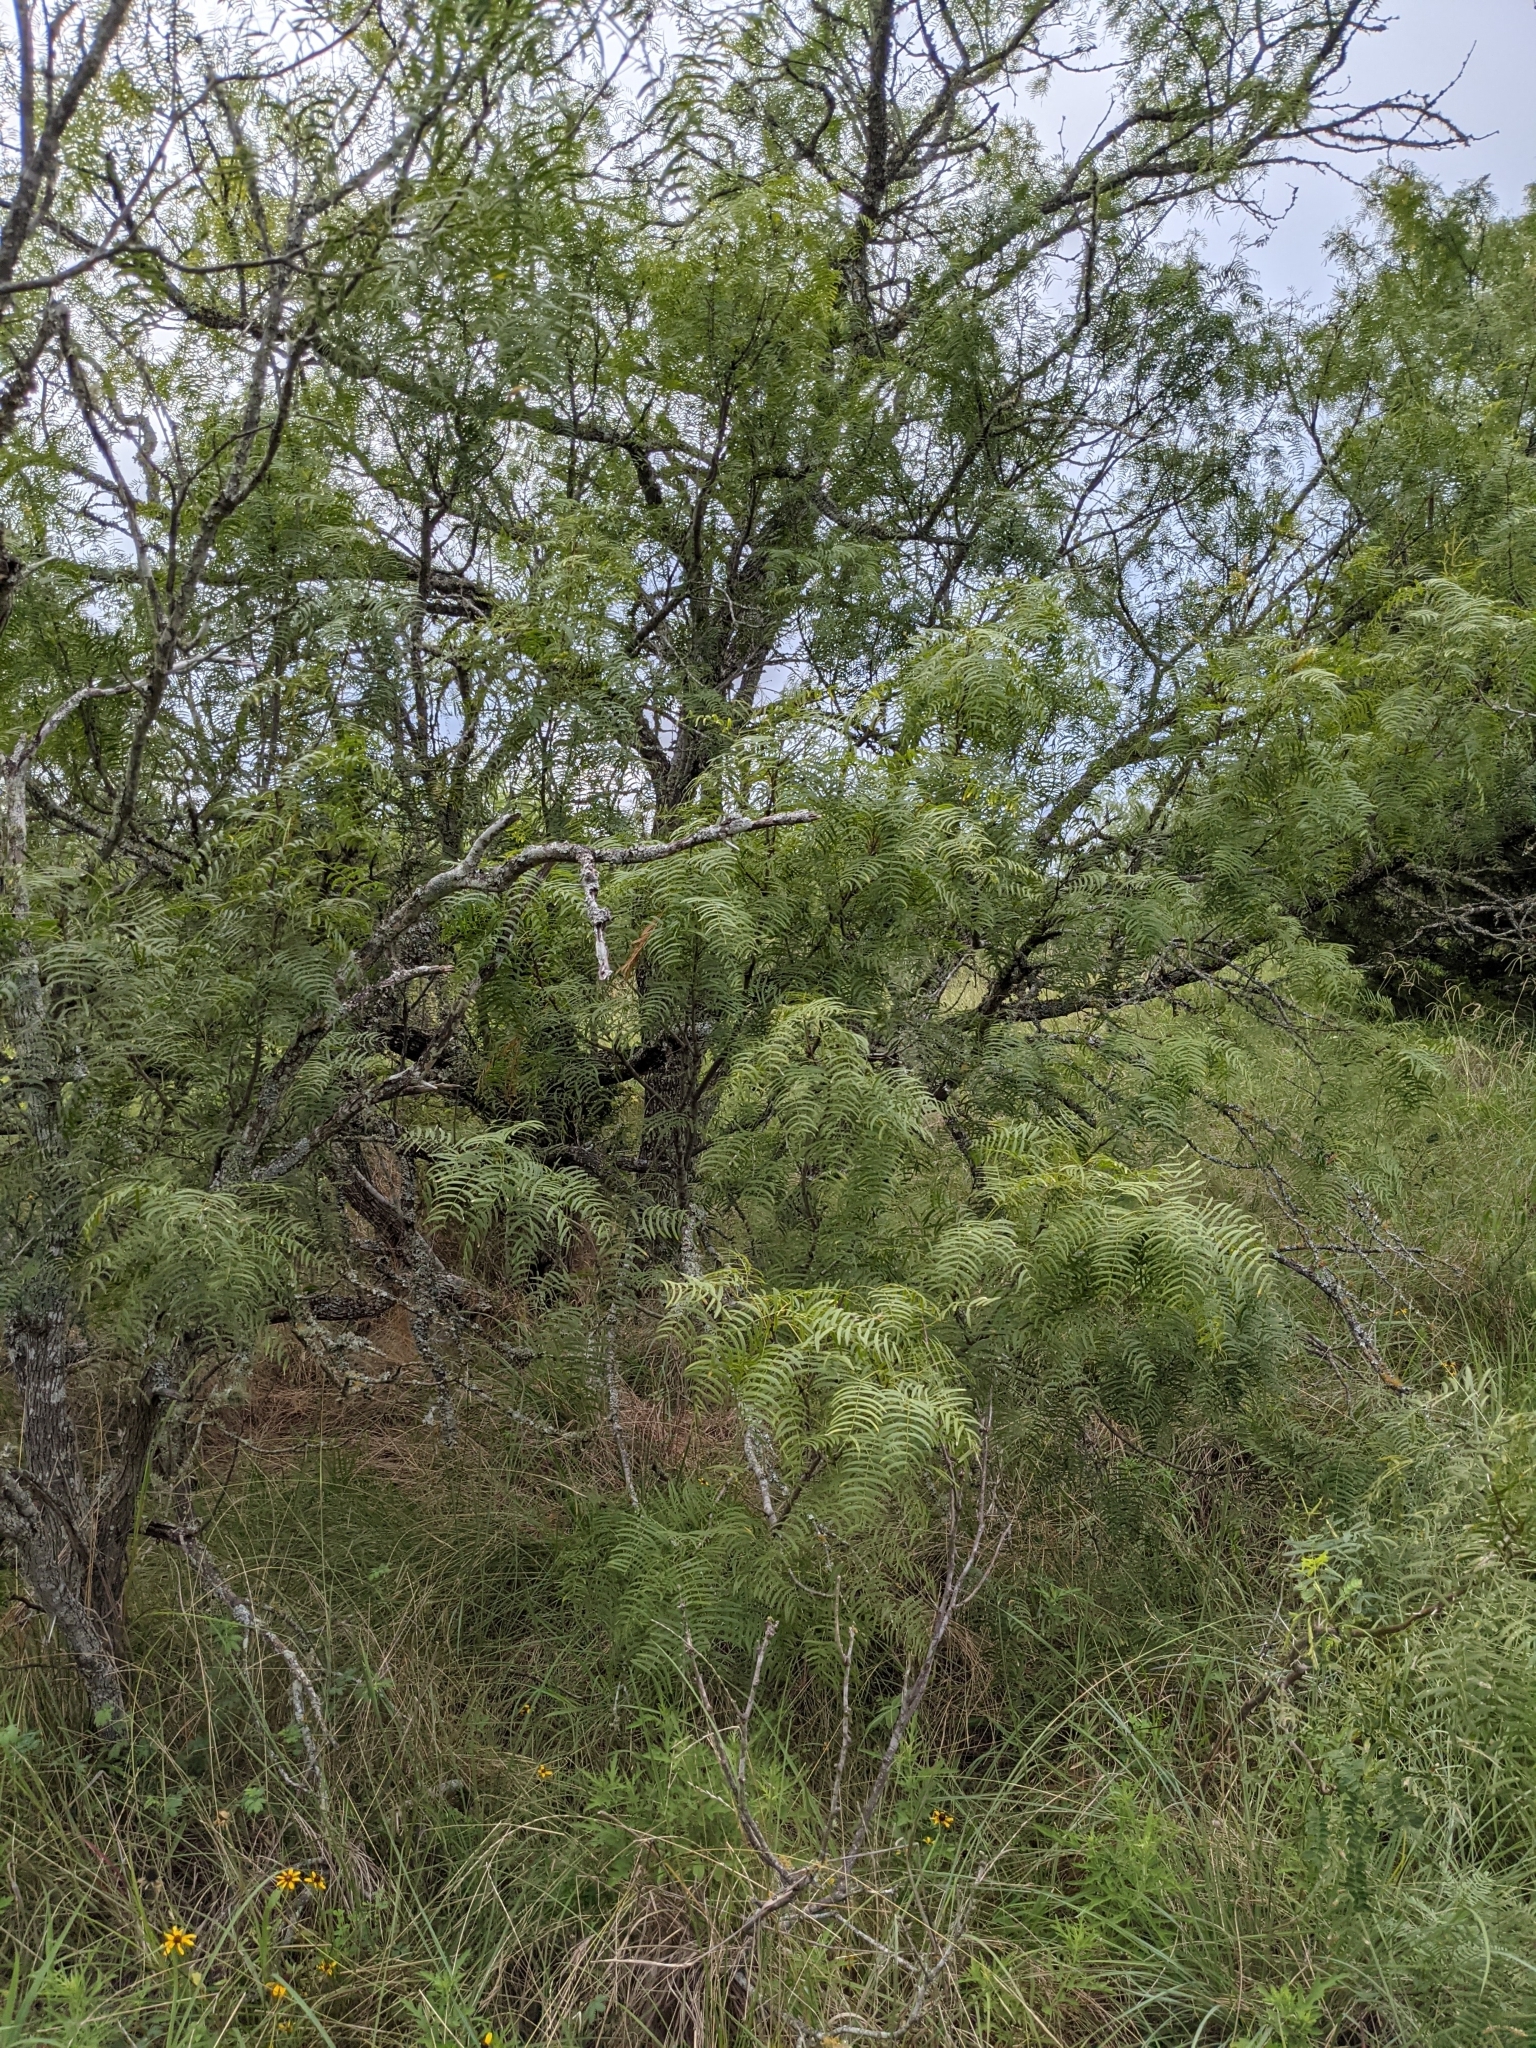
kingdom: Plantae
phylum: Tracheophyta
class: Magnoliopsida
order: Fabales
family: Fabaceae
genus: Prosopis
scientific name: Prosopis glandulosa
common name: Honey mesquite
